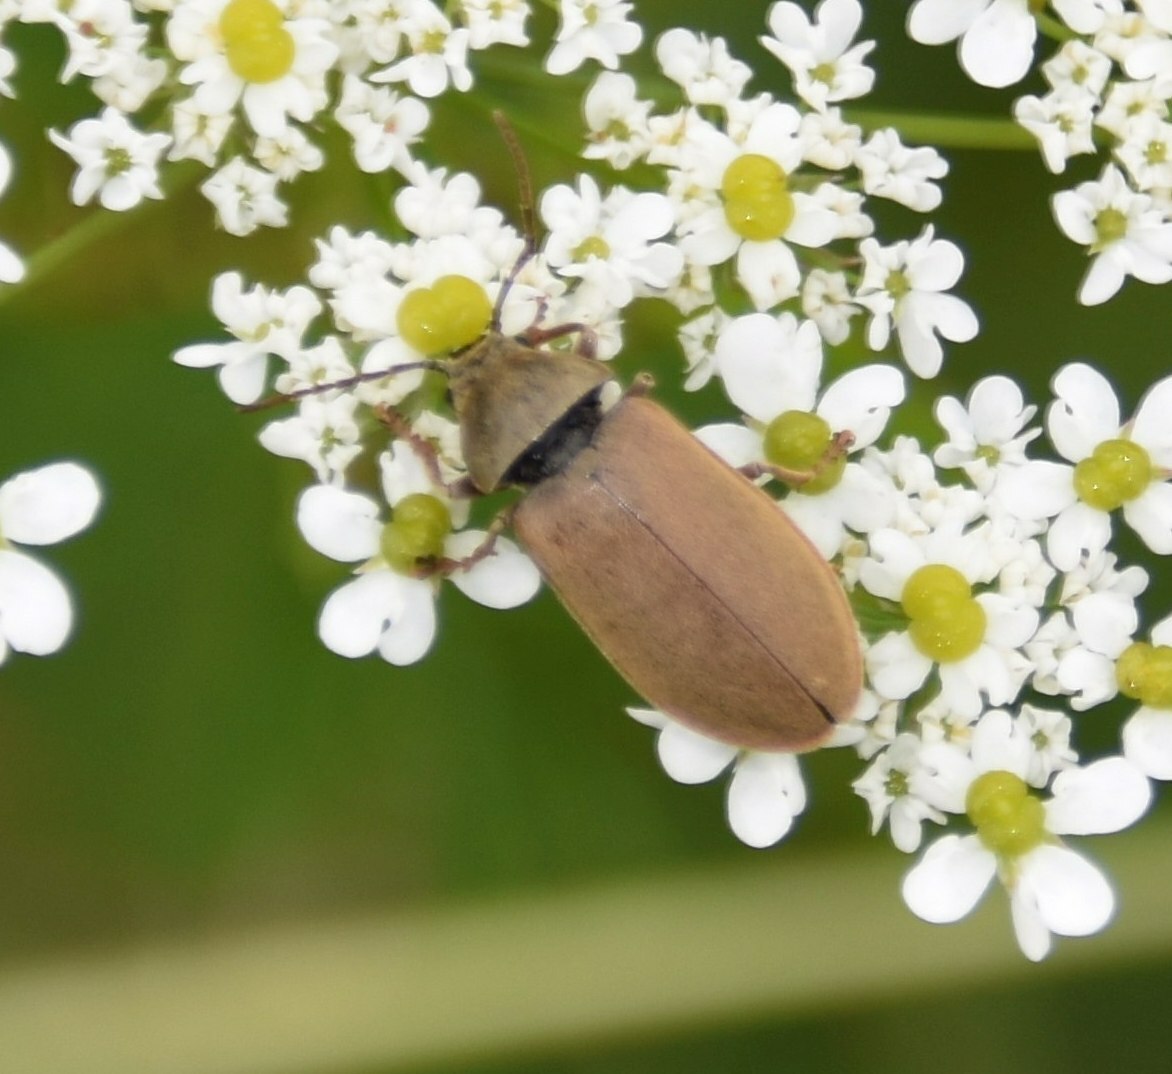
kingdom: Animalia
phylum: Arthropoda
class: Insecta
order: Coleoptera
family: Dascillidae
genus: Dascillus
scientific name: Dascillus cervinus
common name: Orchid beetle
